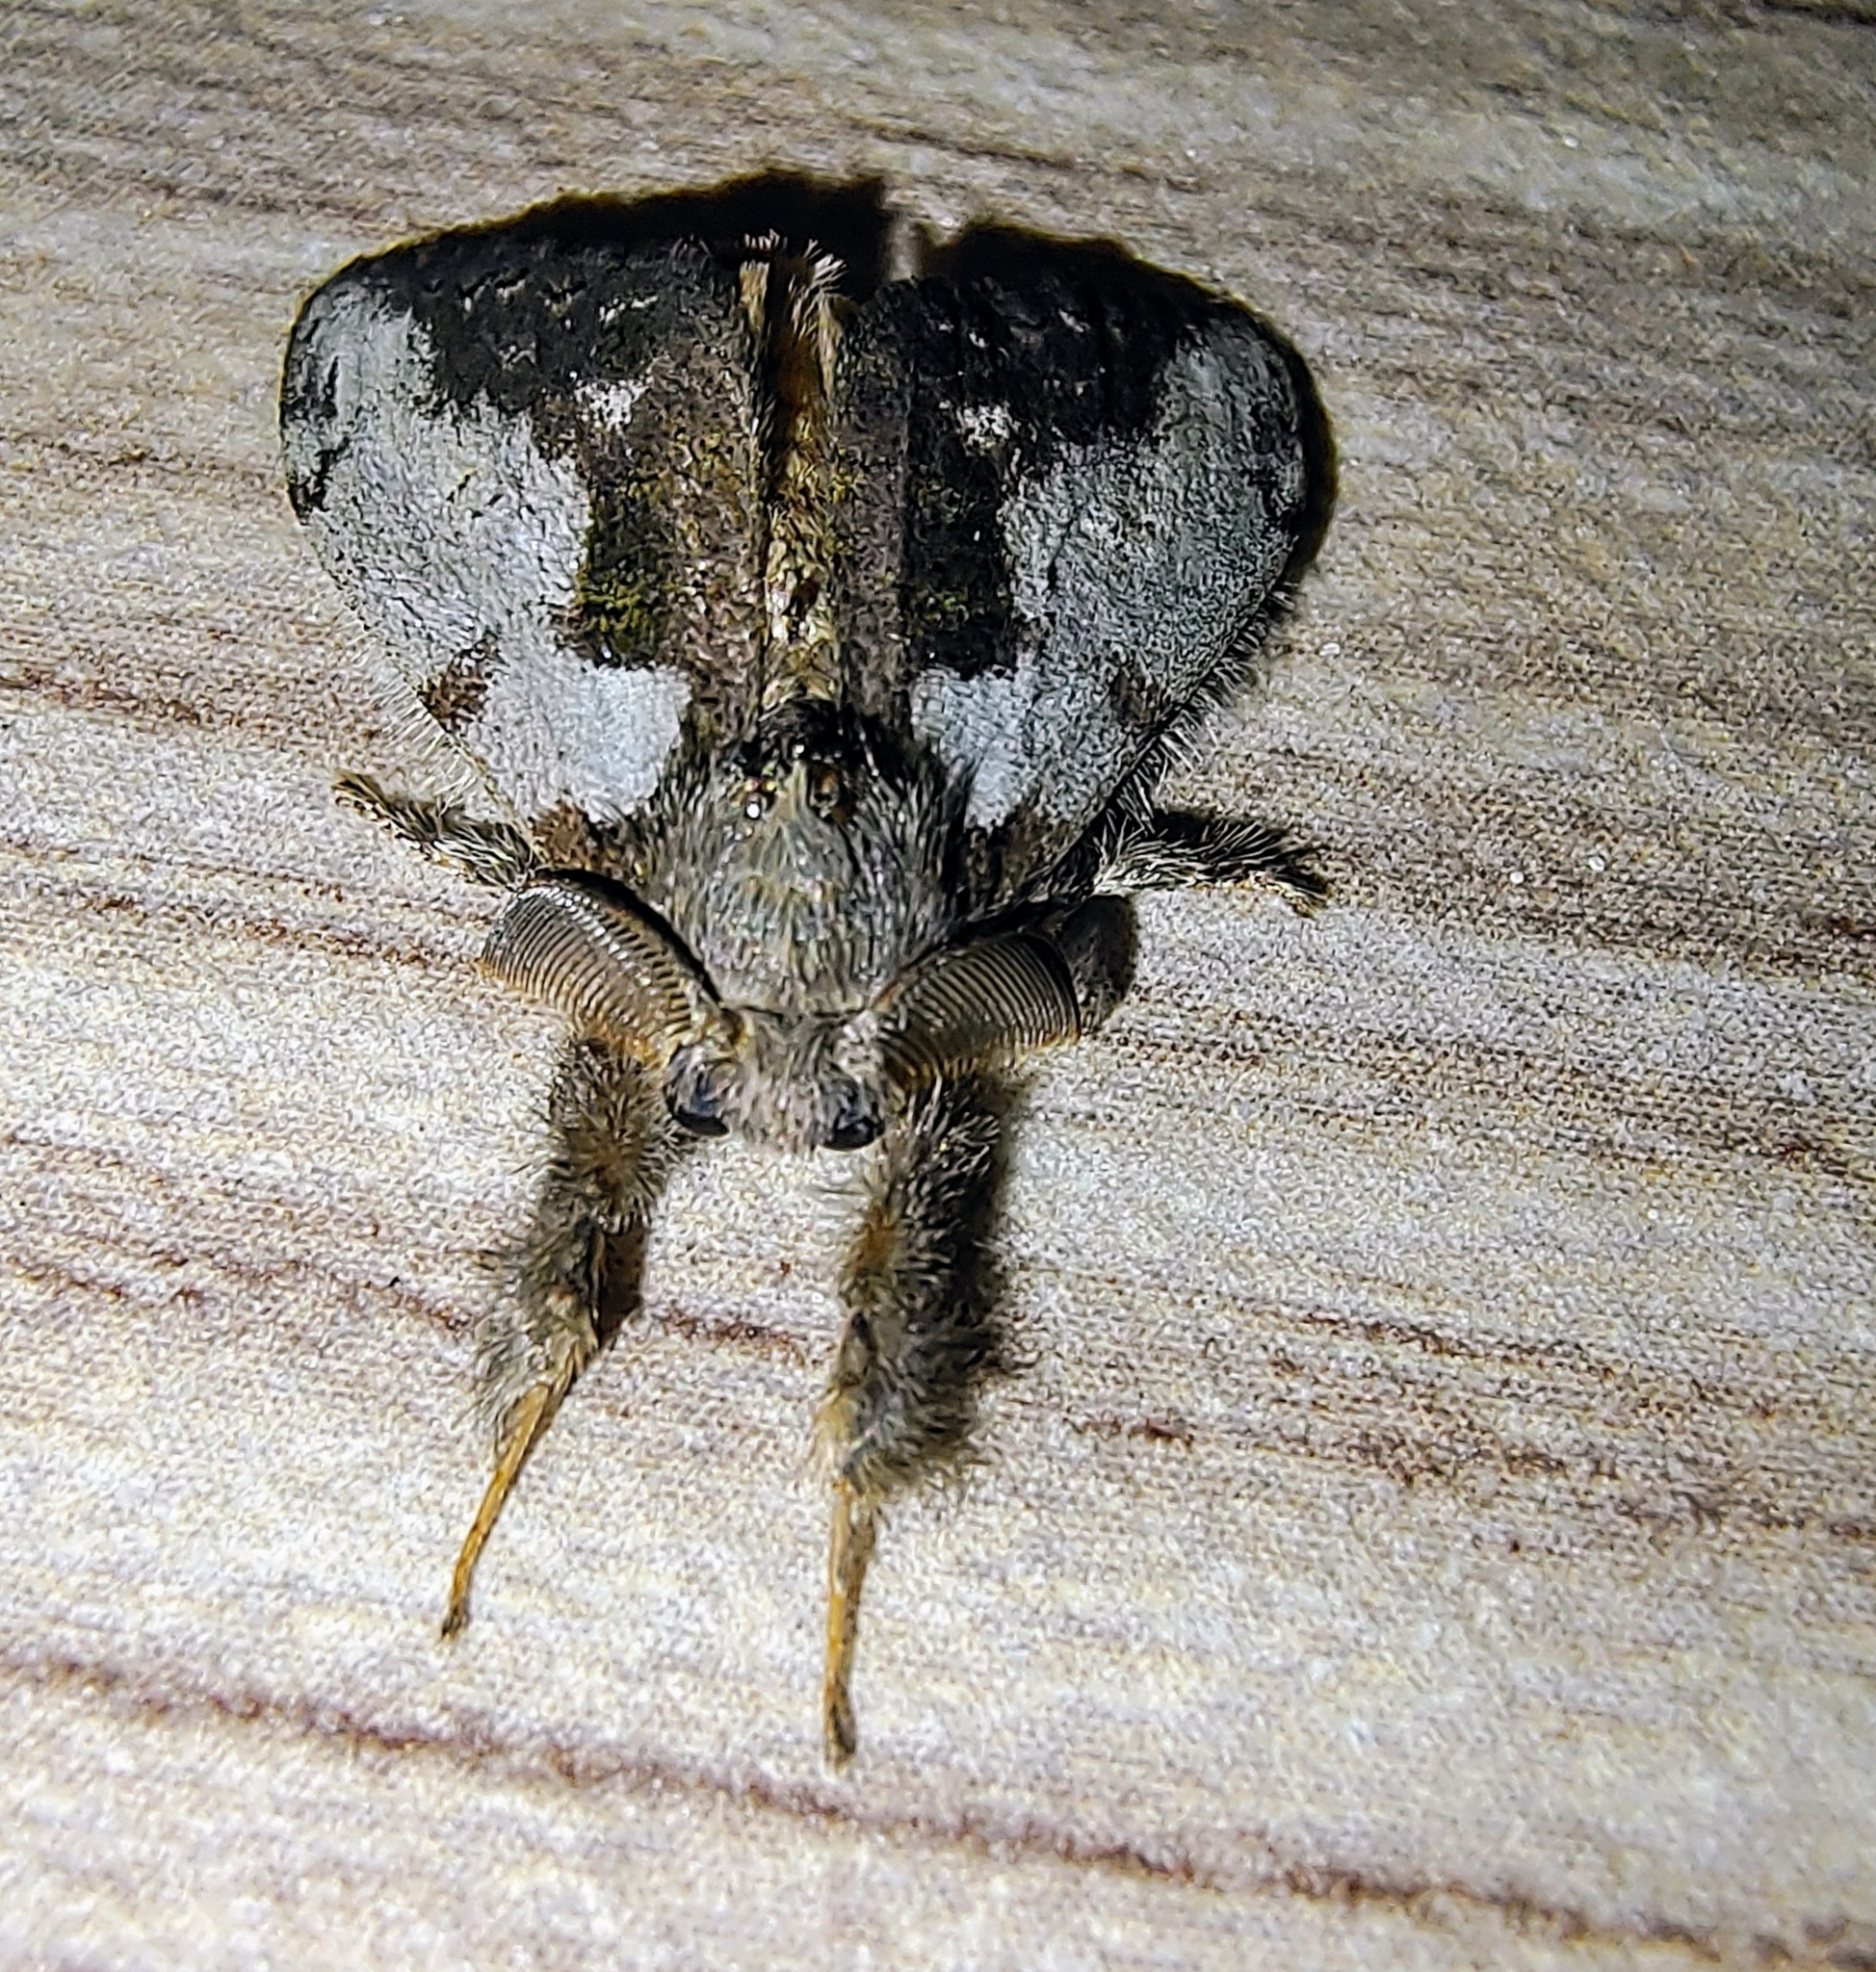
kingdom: Animalia
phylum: Arthropoda
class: Insecta
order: Lepidoptera
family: Erebidae
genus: Olene
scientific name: Olene mendosa
